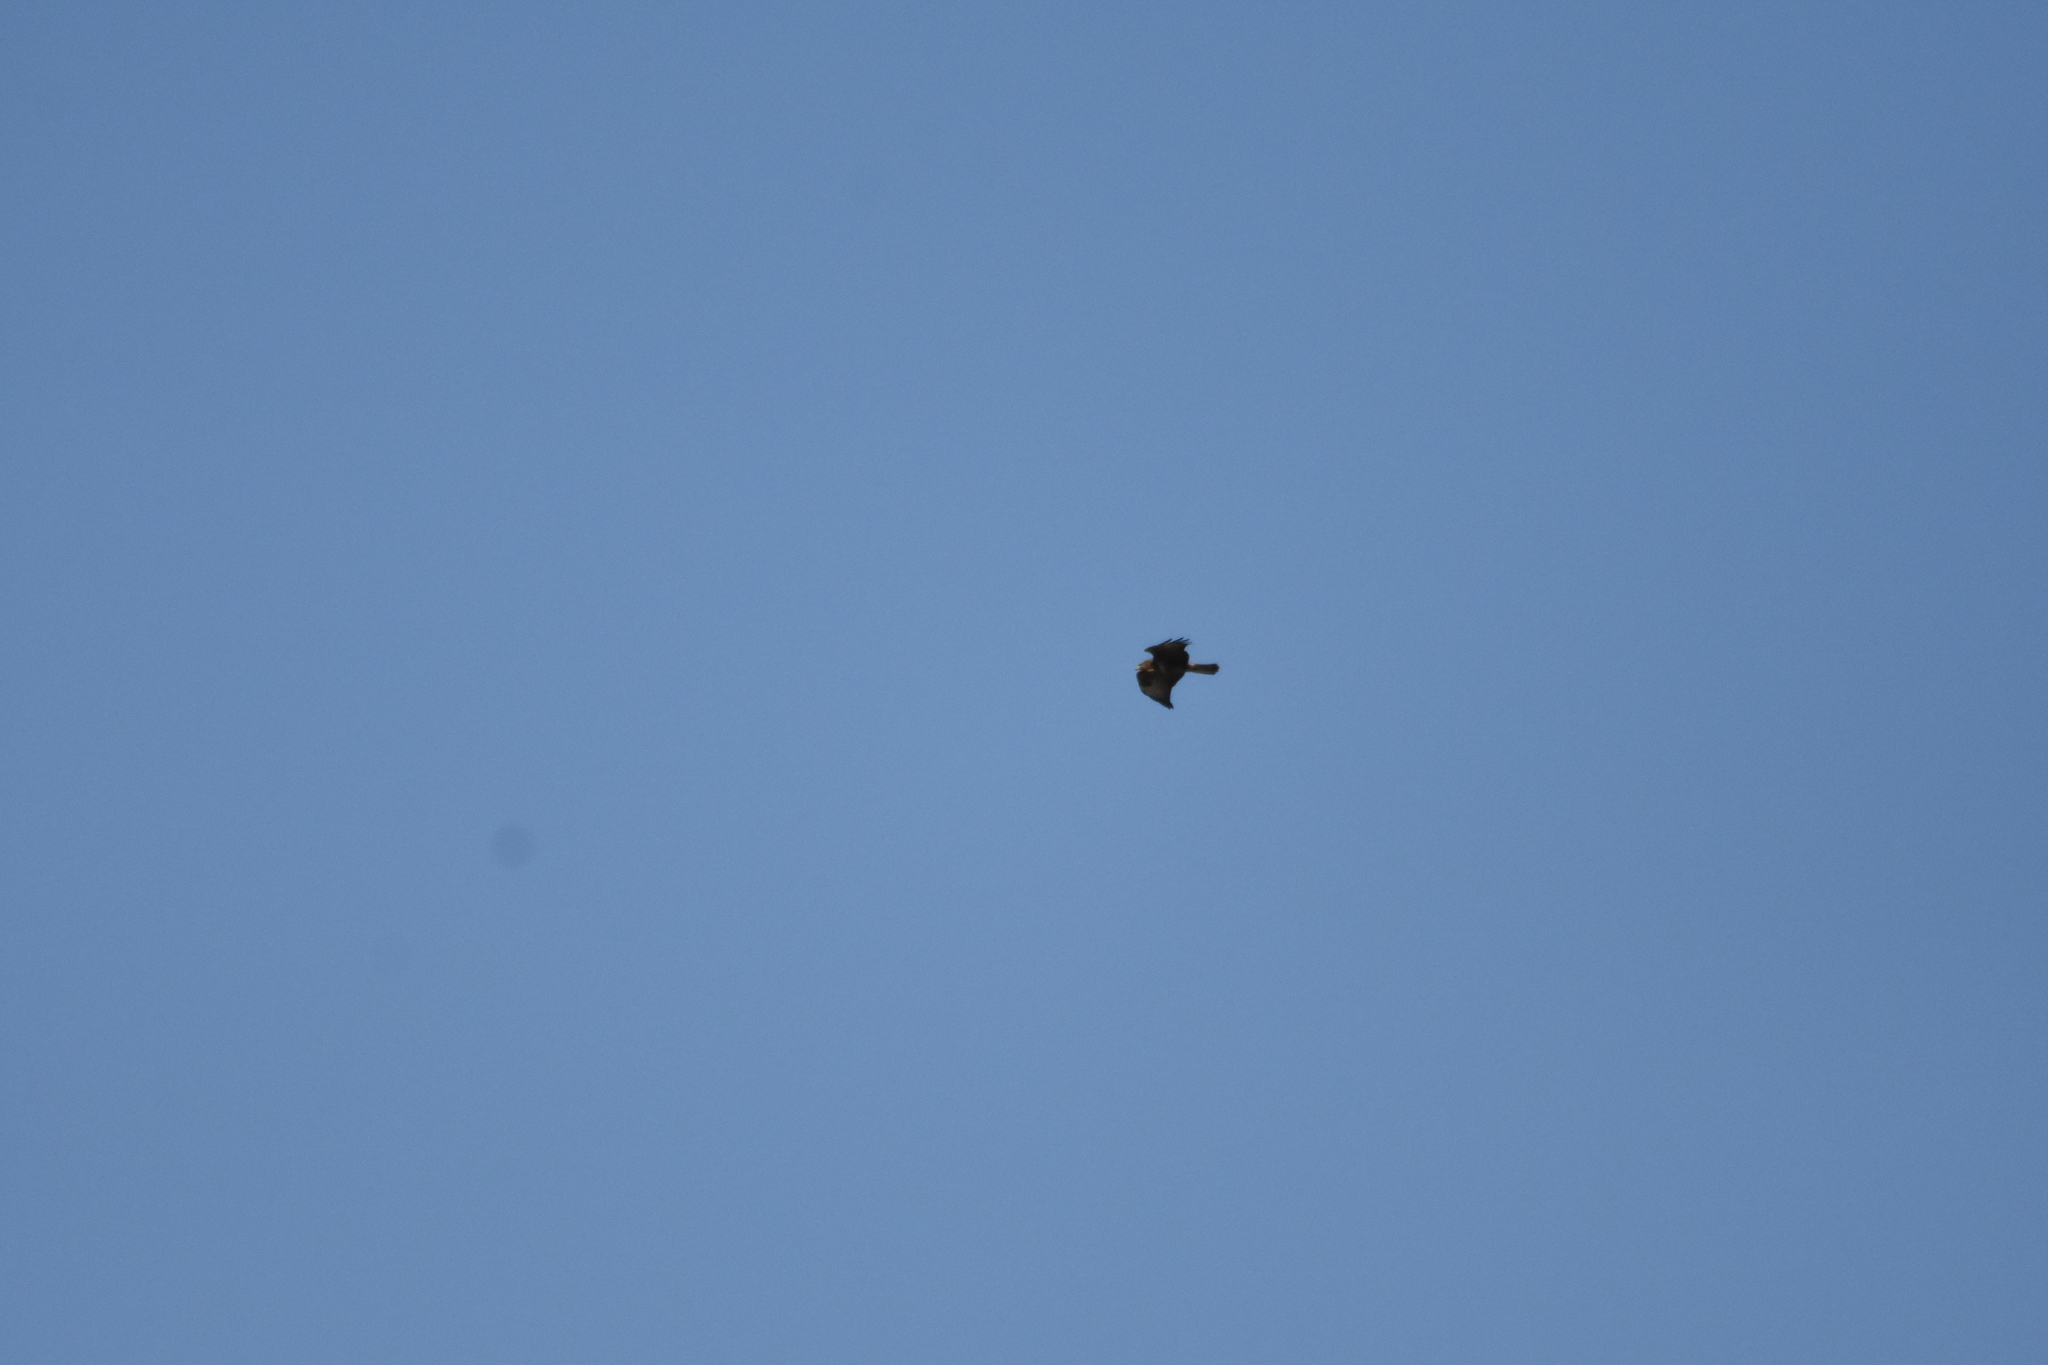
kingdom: Animalia
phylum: Chordata
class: Aves
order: Accipitriformes
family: Accipitridae
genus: Buteo
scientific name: Buteo buteo
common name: Common buzzard
